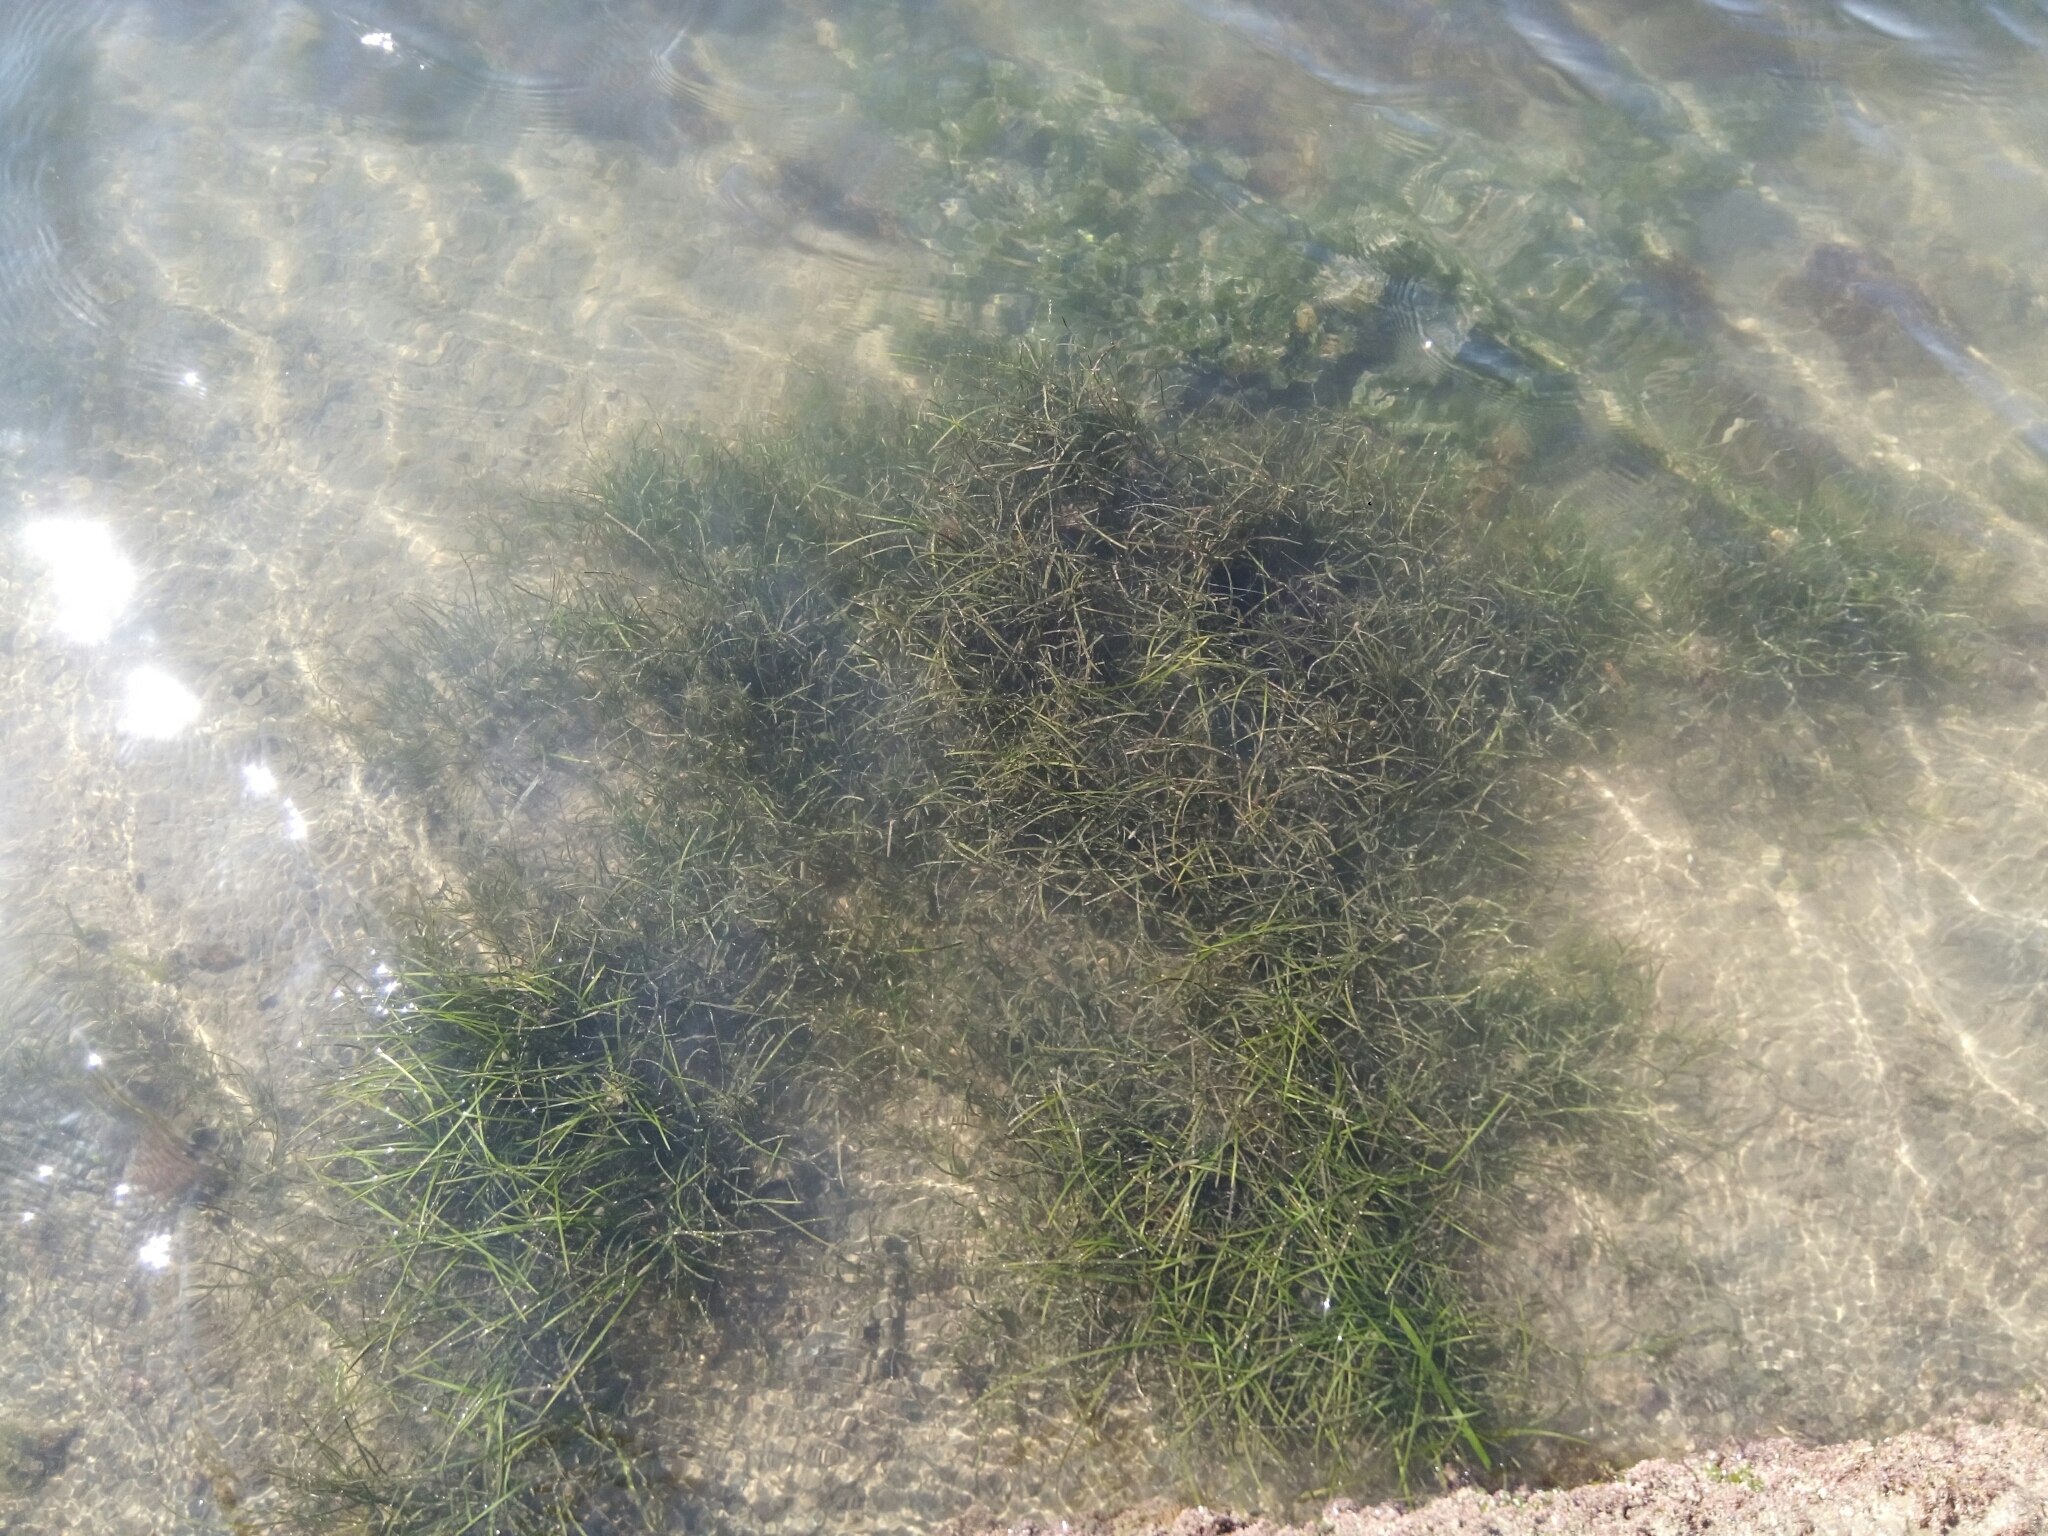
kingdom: Plantae
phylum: Tracheophyta
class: Liliopsida
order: Alismatales
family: Zosteraceae
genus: Zostera
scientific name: Zostera noltii
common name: Dwarf eelgrass
